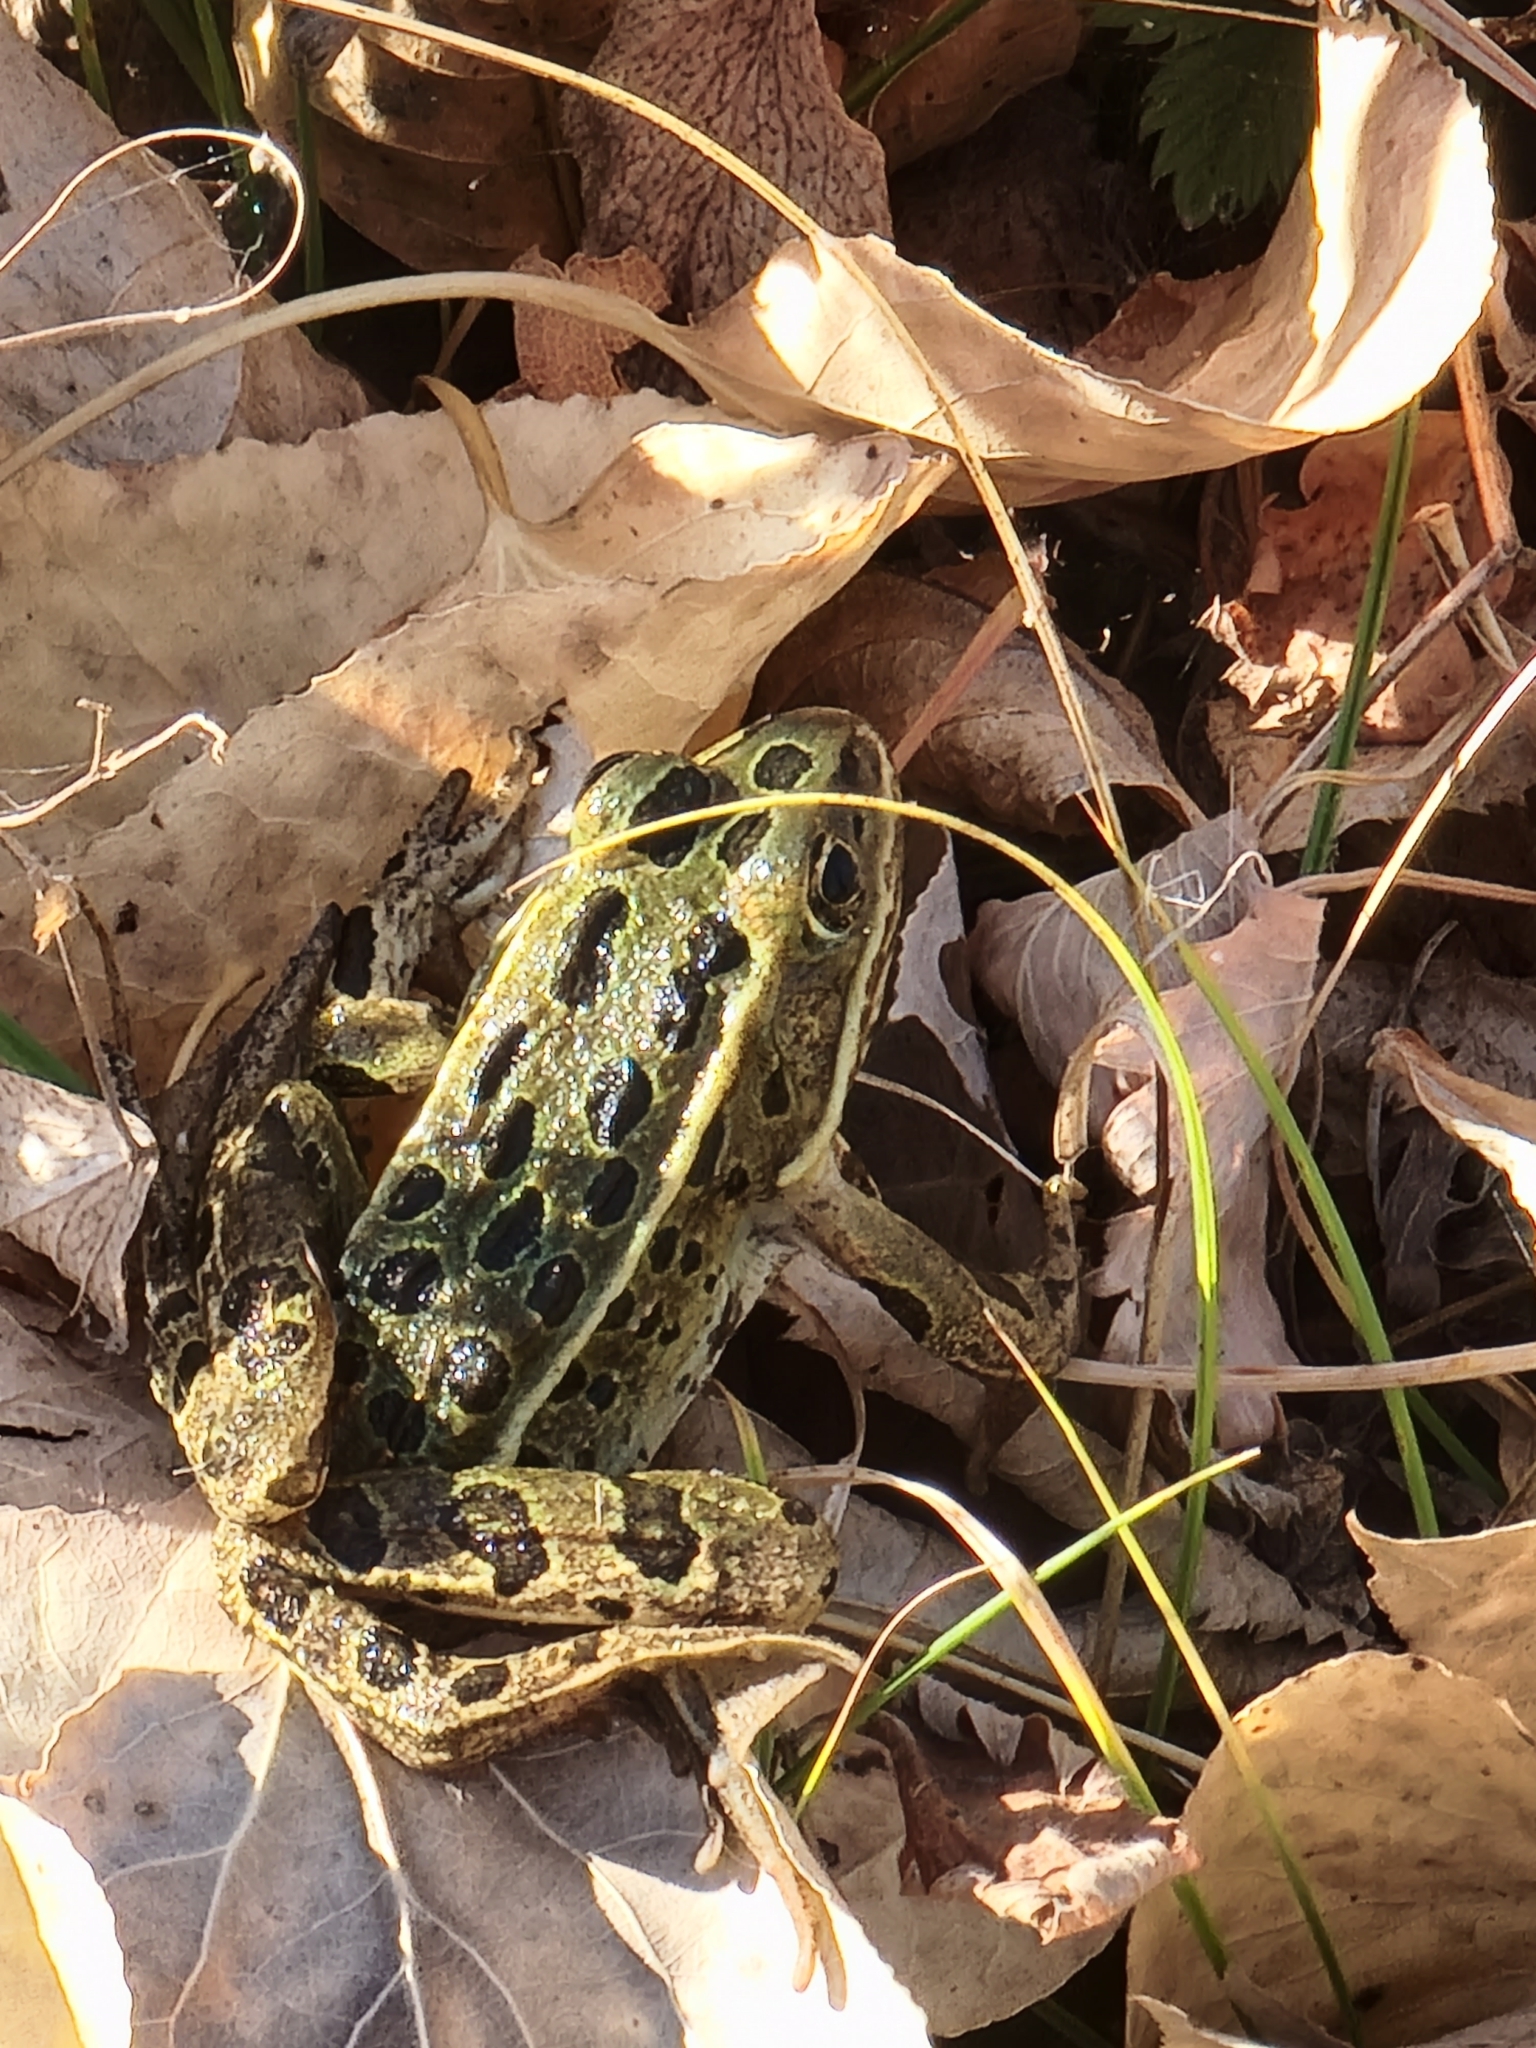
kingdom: Animalia
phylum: Chordata
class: Amphibia
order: Anura
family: Ranidae
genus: Lithobates
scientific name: Lithobates pipiens
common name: Northern leopard frog
